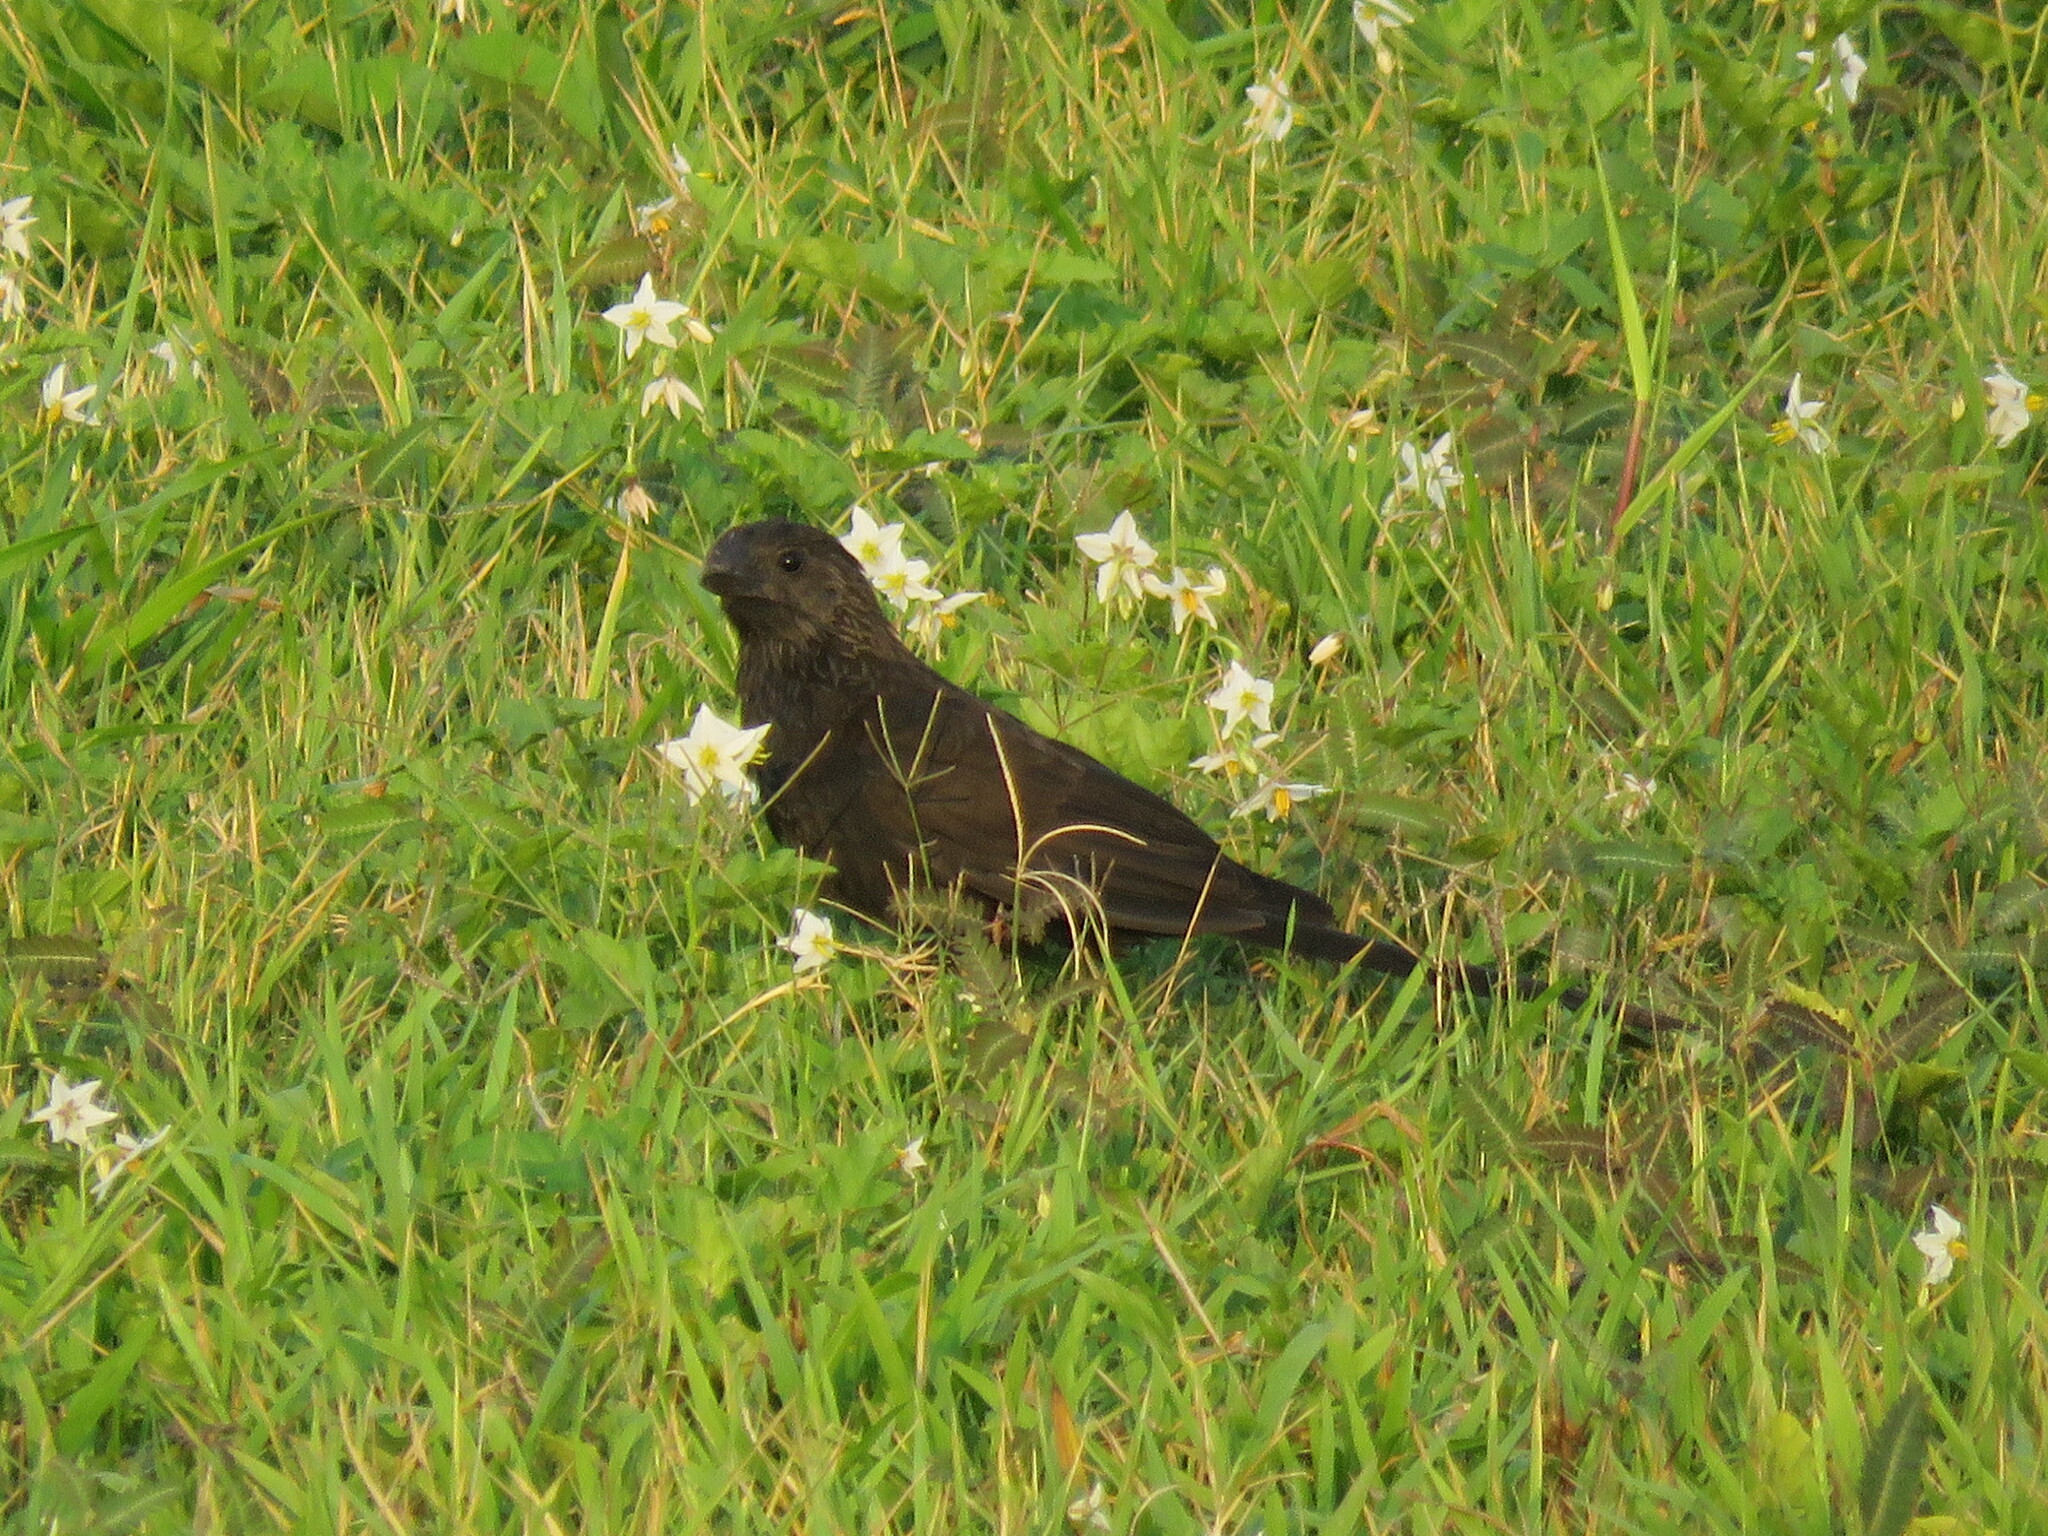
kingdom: Animalia
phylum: Chordata
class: Aves
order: Cuculiformes
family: Cuculidae
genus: Crotophaga
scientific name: Crotophaga ani
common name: Smooth-billed ani
